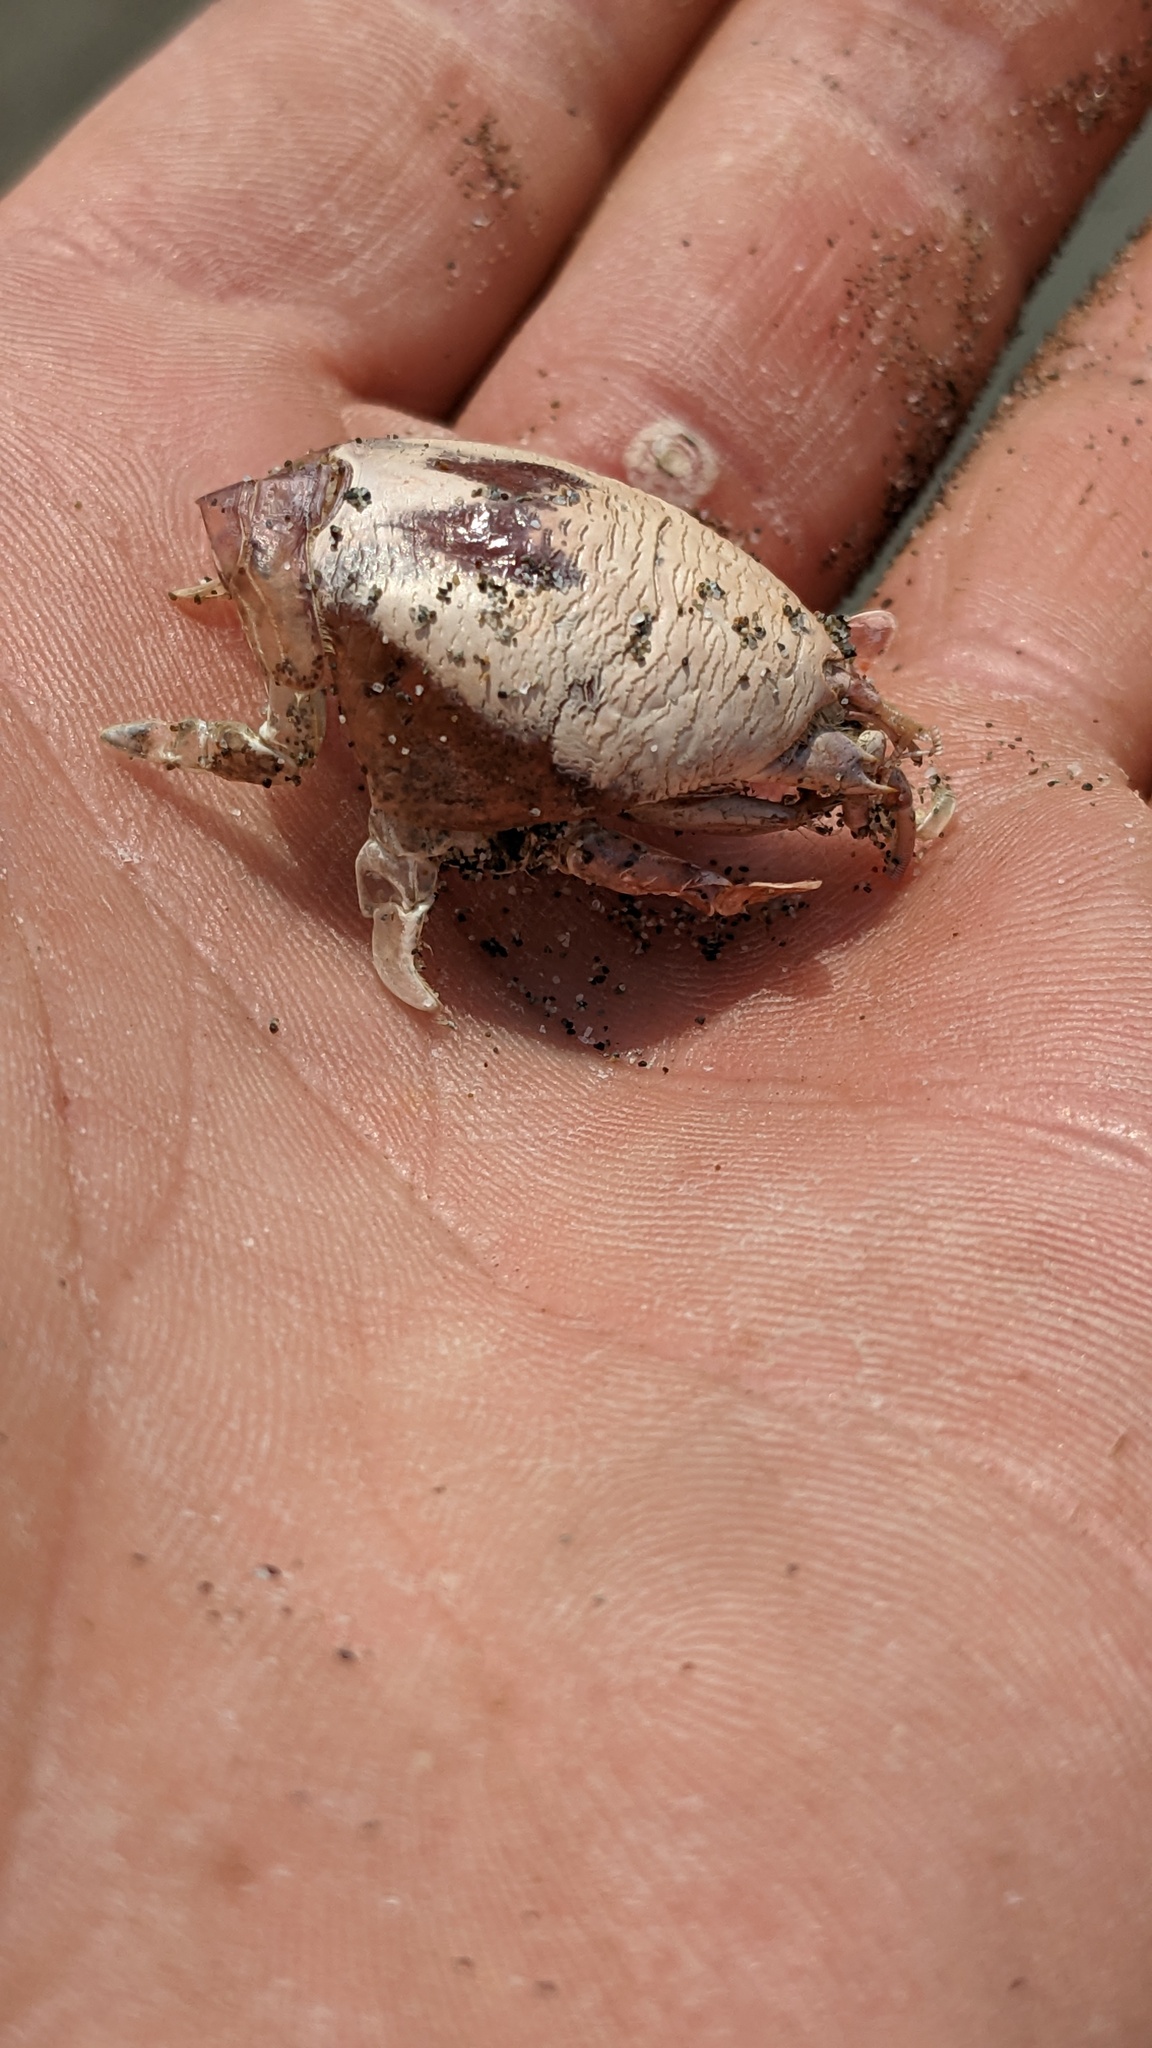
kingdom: Animalia
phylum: Arthropoda
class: Malacostraca
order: Decapoda
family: Hippidae
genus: Emerita
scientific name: Emerita analoga
